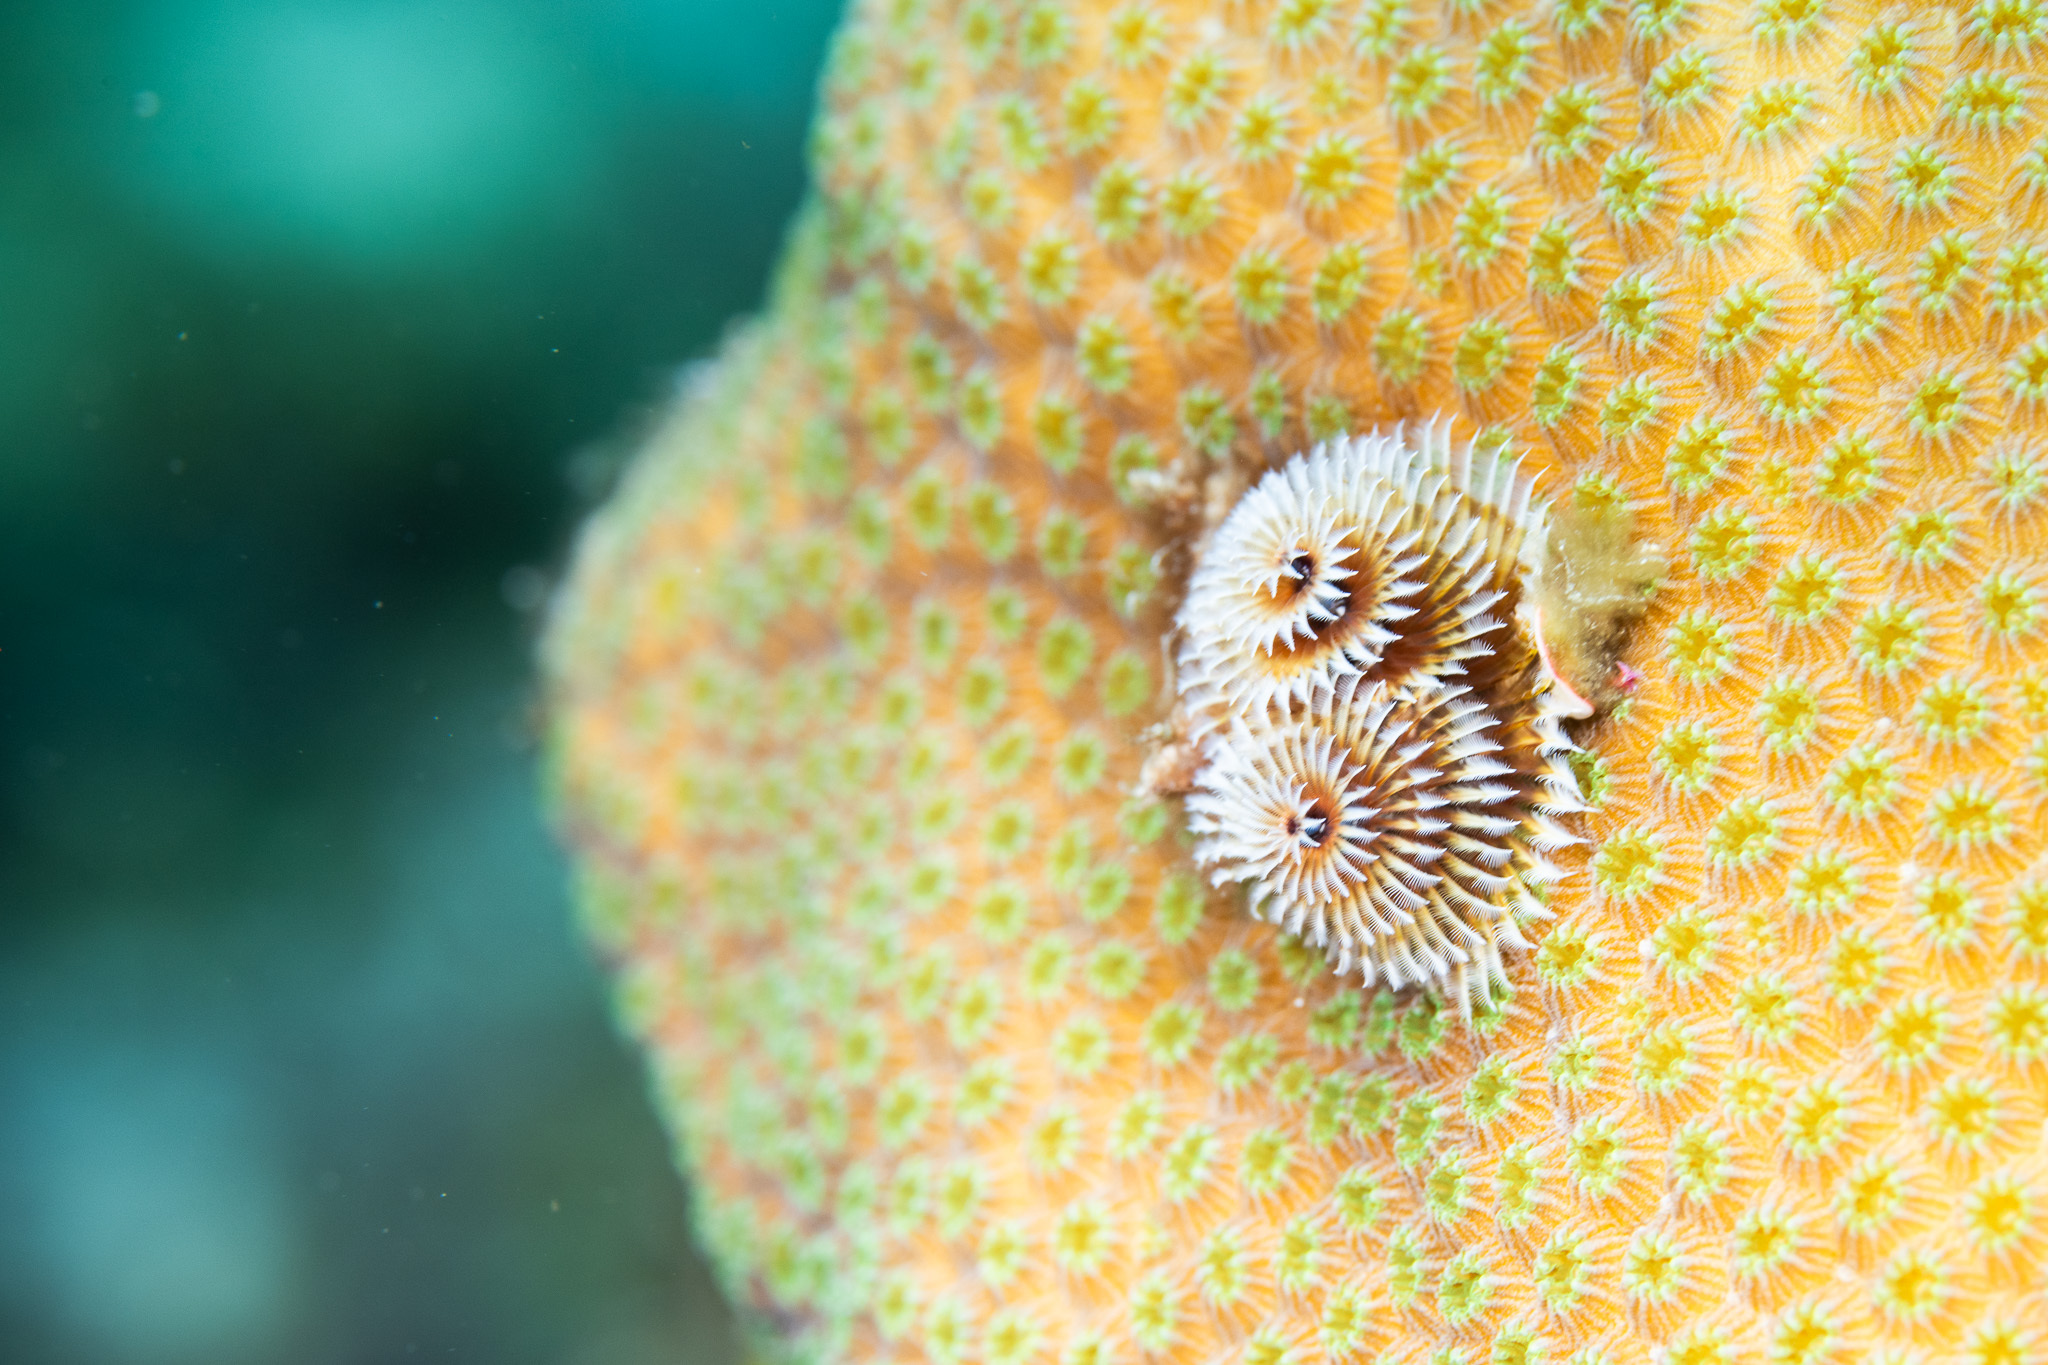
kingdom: Animalia
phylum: Annelida
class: Polychaeta
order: Sabellida
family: Serpulidae
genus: Spirobranchus
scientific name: Spirobranchus giganteus
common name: Christmas tree worm
